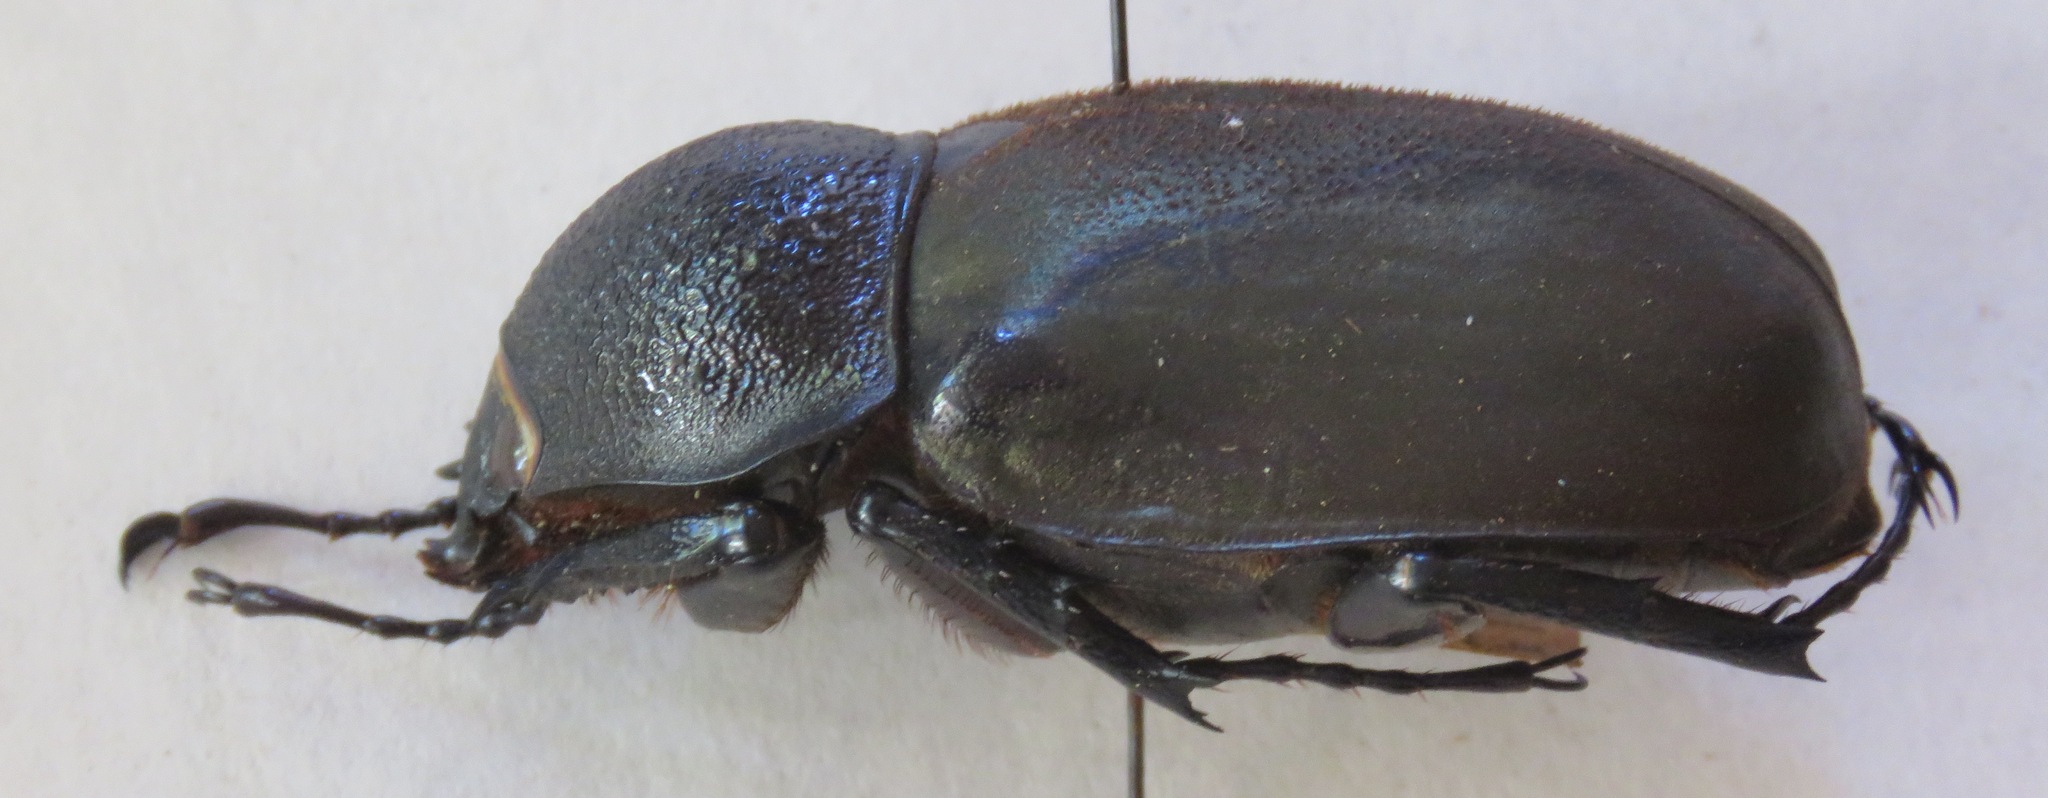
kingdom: Animalia
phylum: Arthropoda
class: Insecta
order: Coleoptera
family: Scarabaeidae
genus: Chalcosoma
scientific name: Chalcosoma atlas
